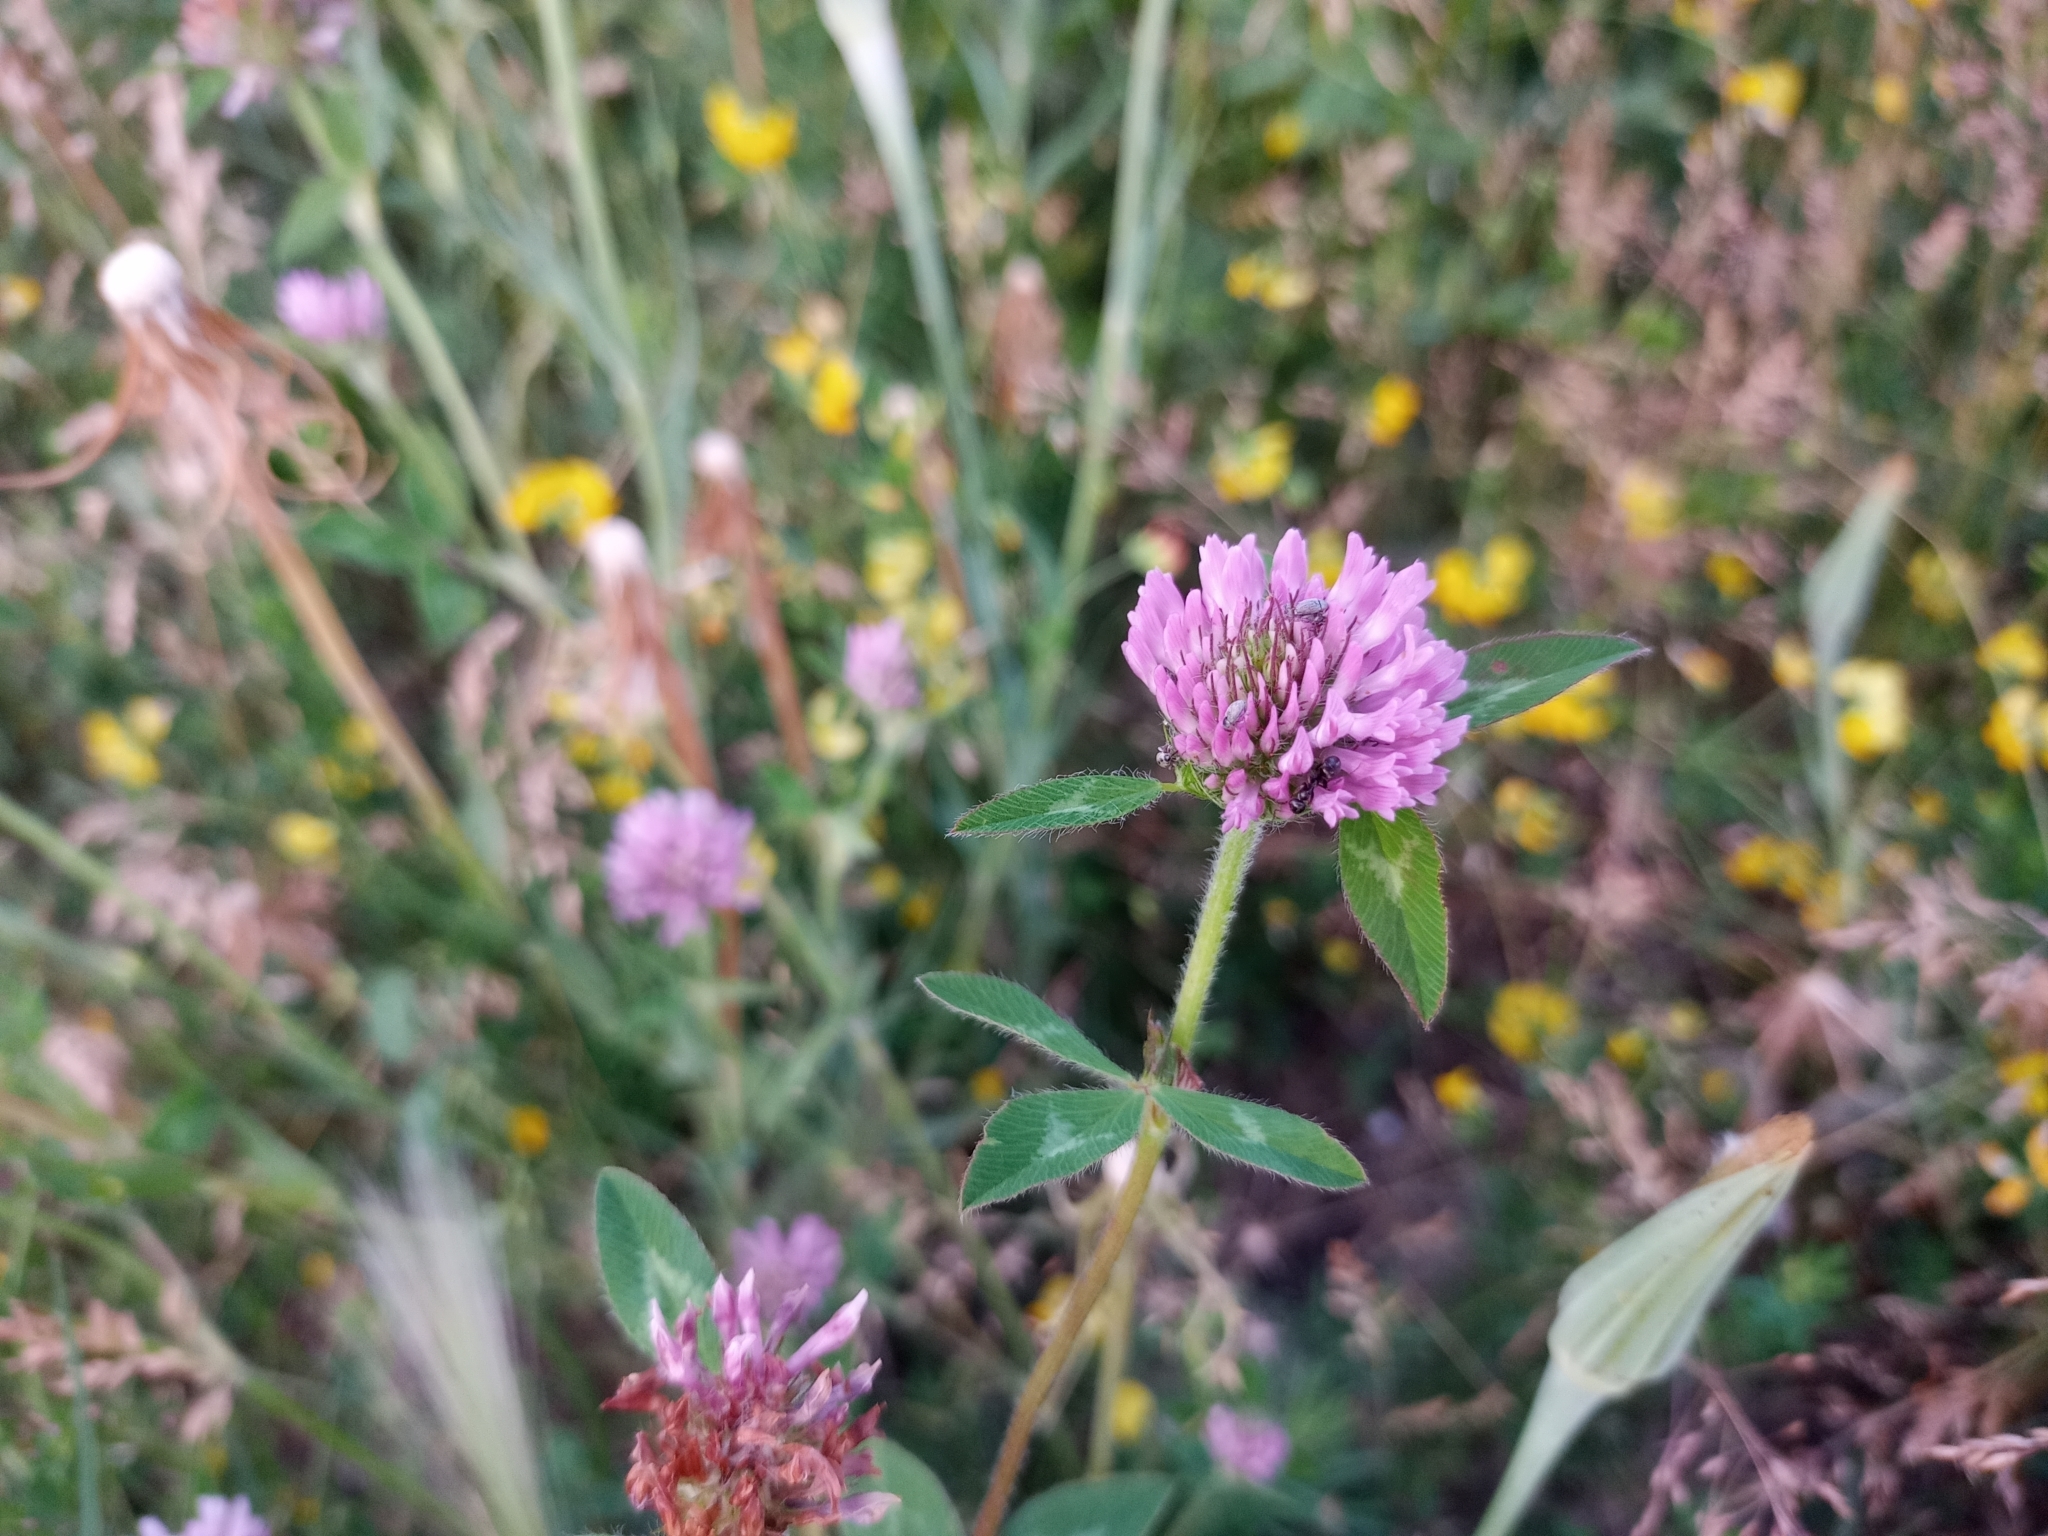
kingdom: Plantae
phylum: Tracheophyta
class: Magnoliopsida
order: Fabales
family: Fabaceae
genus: Trifolium
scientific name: Trifolium pratense
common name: Red clover
